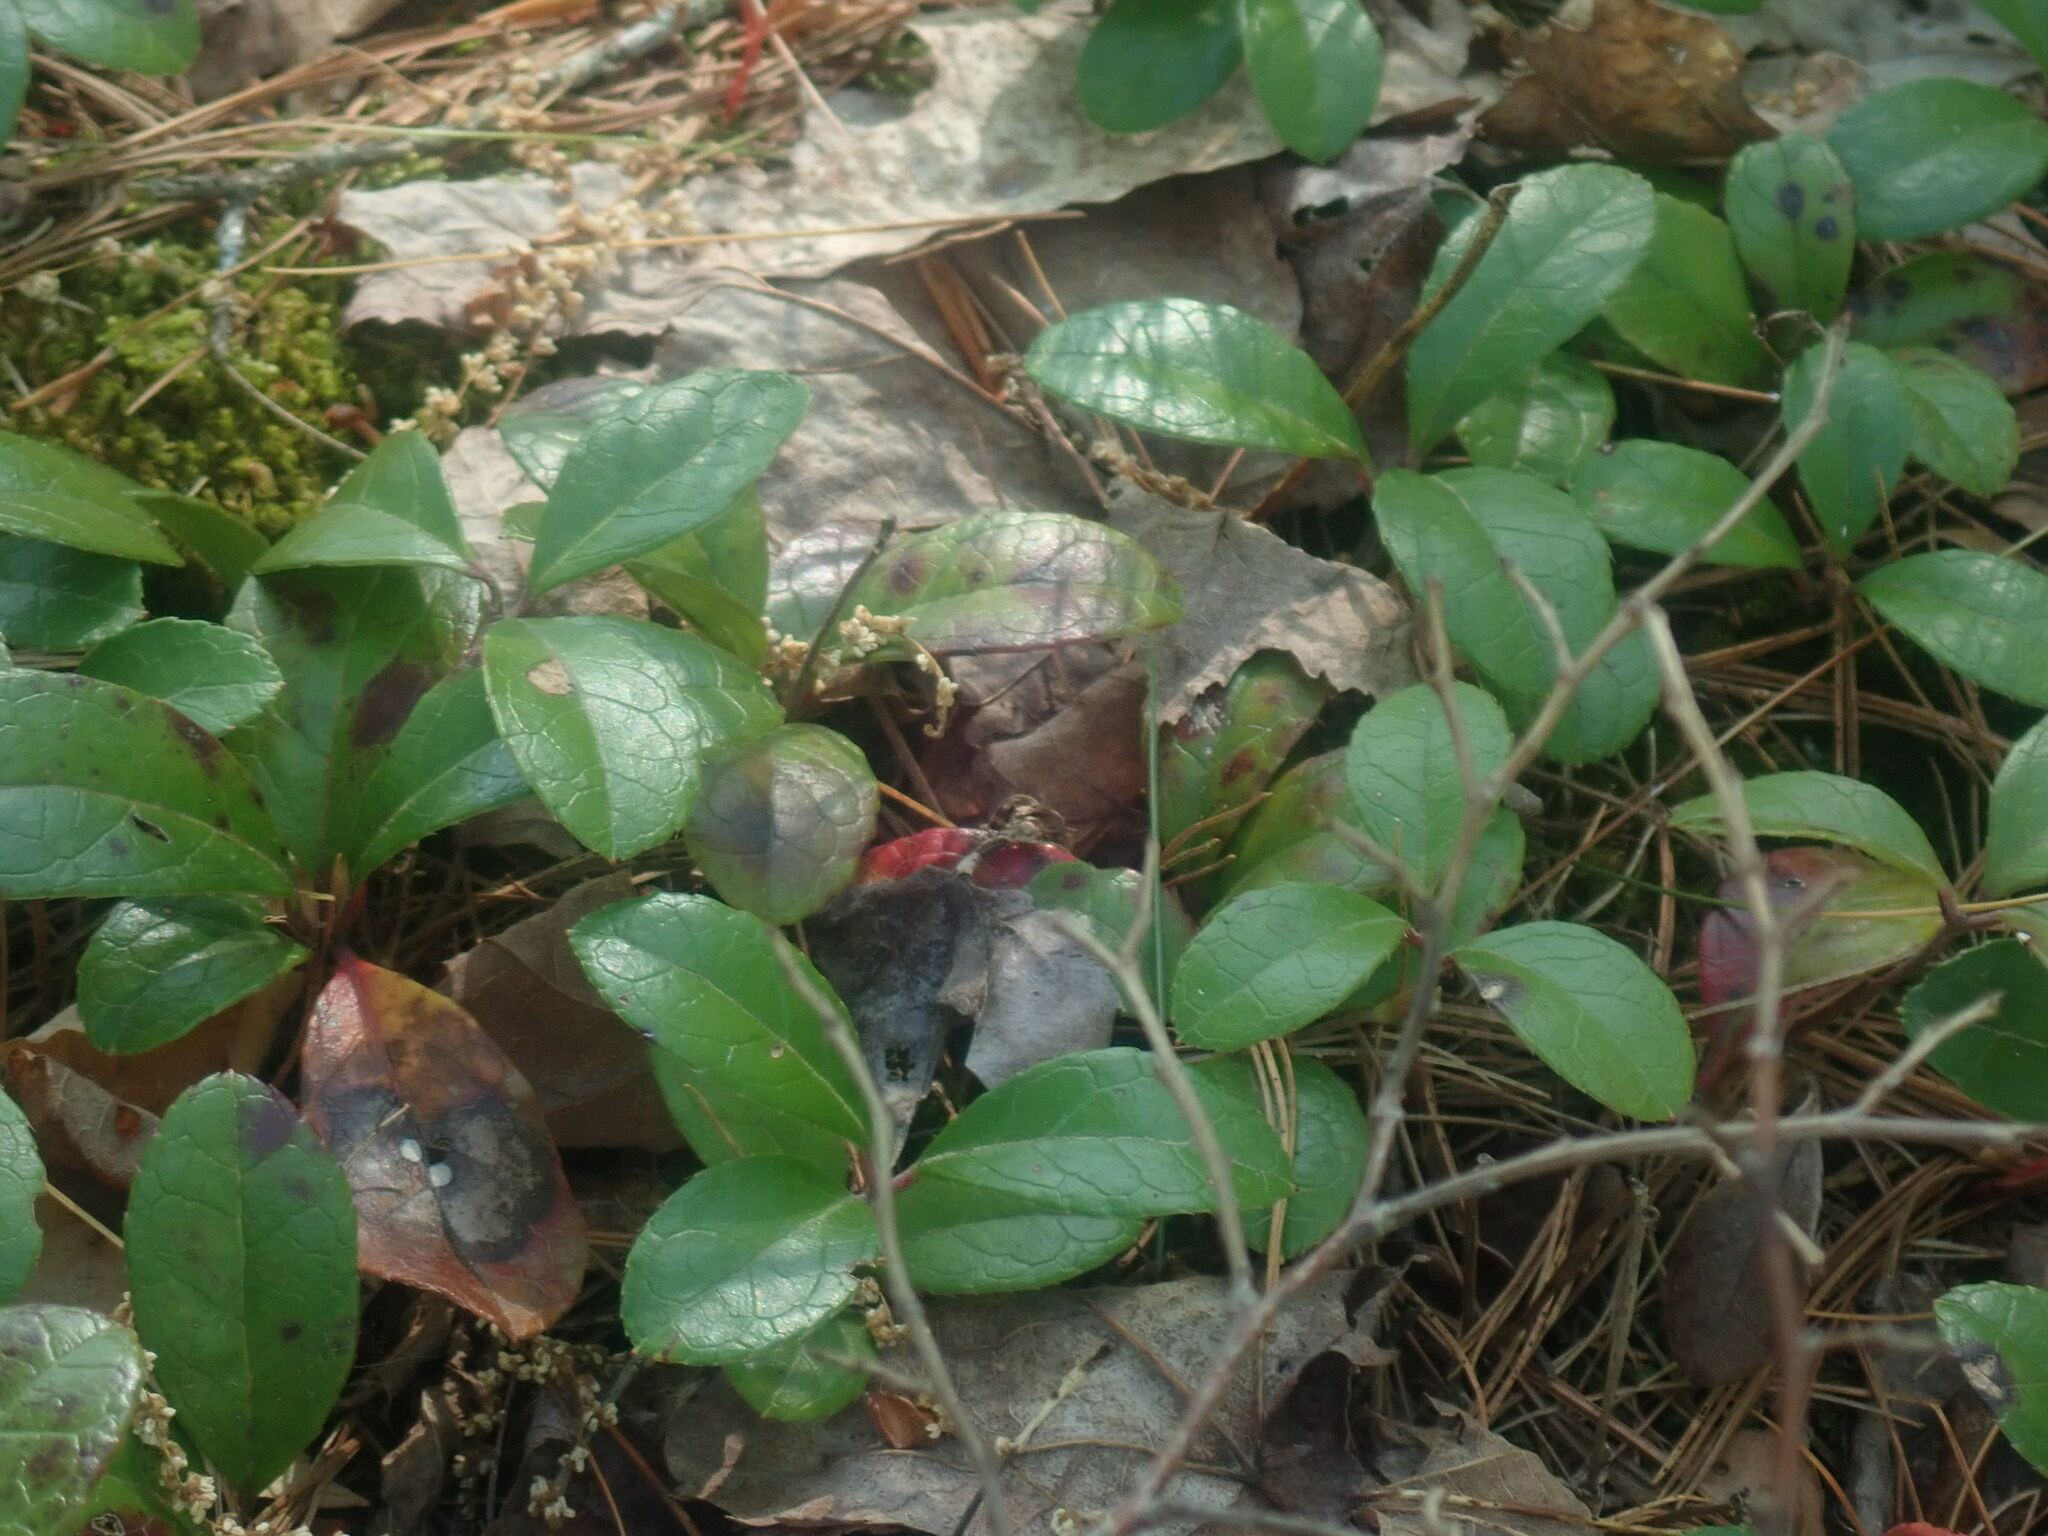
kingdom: Plantae
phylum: Tracheophyta
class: Magnoliopsida
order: Ericales
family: Ericaceae
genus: Gaultheria
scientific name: Gaultheria procumbens
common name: Checkerberry
